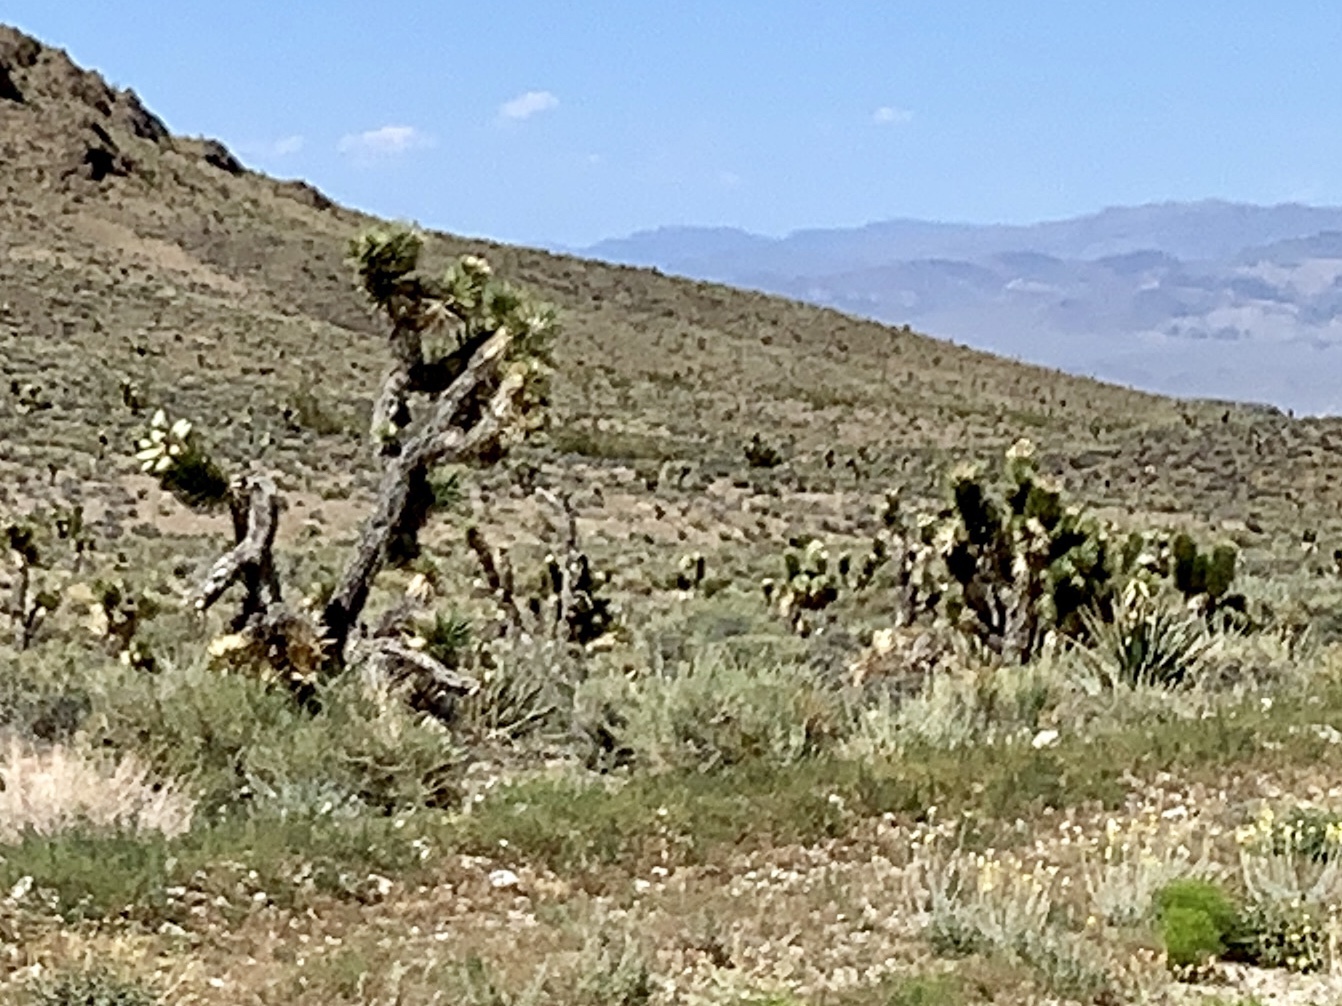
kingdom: Plantae
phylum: Tracheophyta
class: Liliopsida
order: Asparagales
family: Asparagaceae
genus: Yucca
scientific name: Yucca brevifolia
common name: Joshua tree
